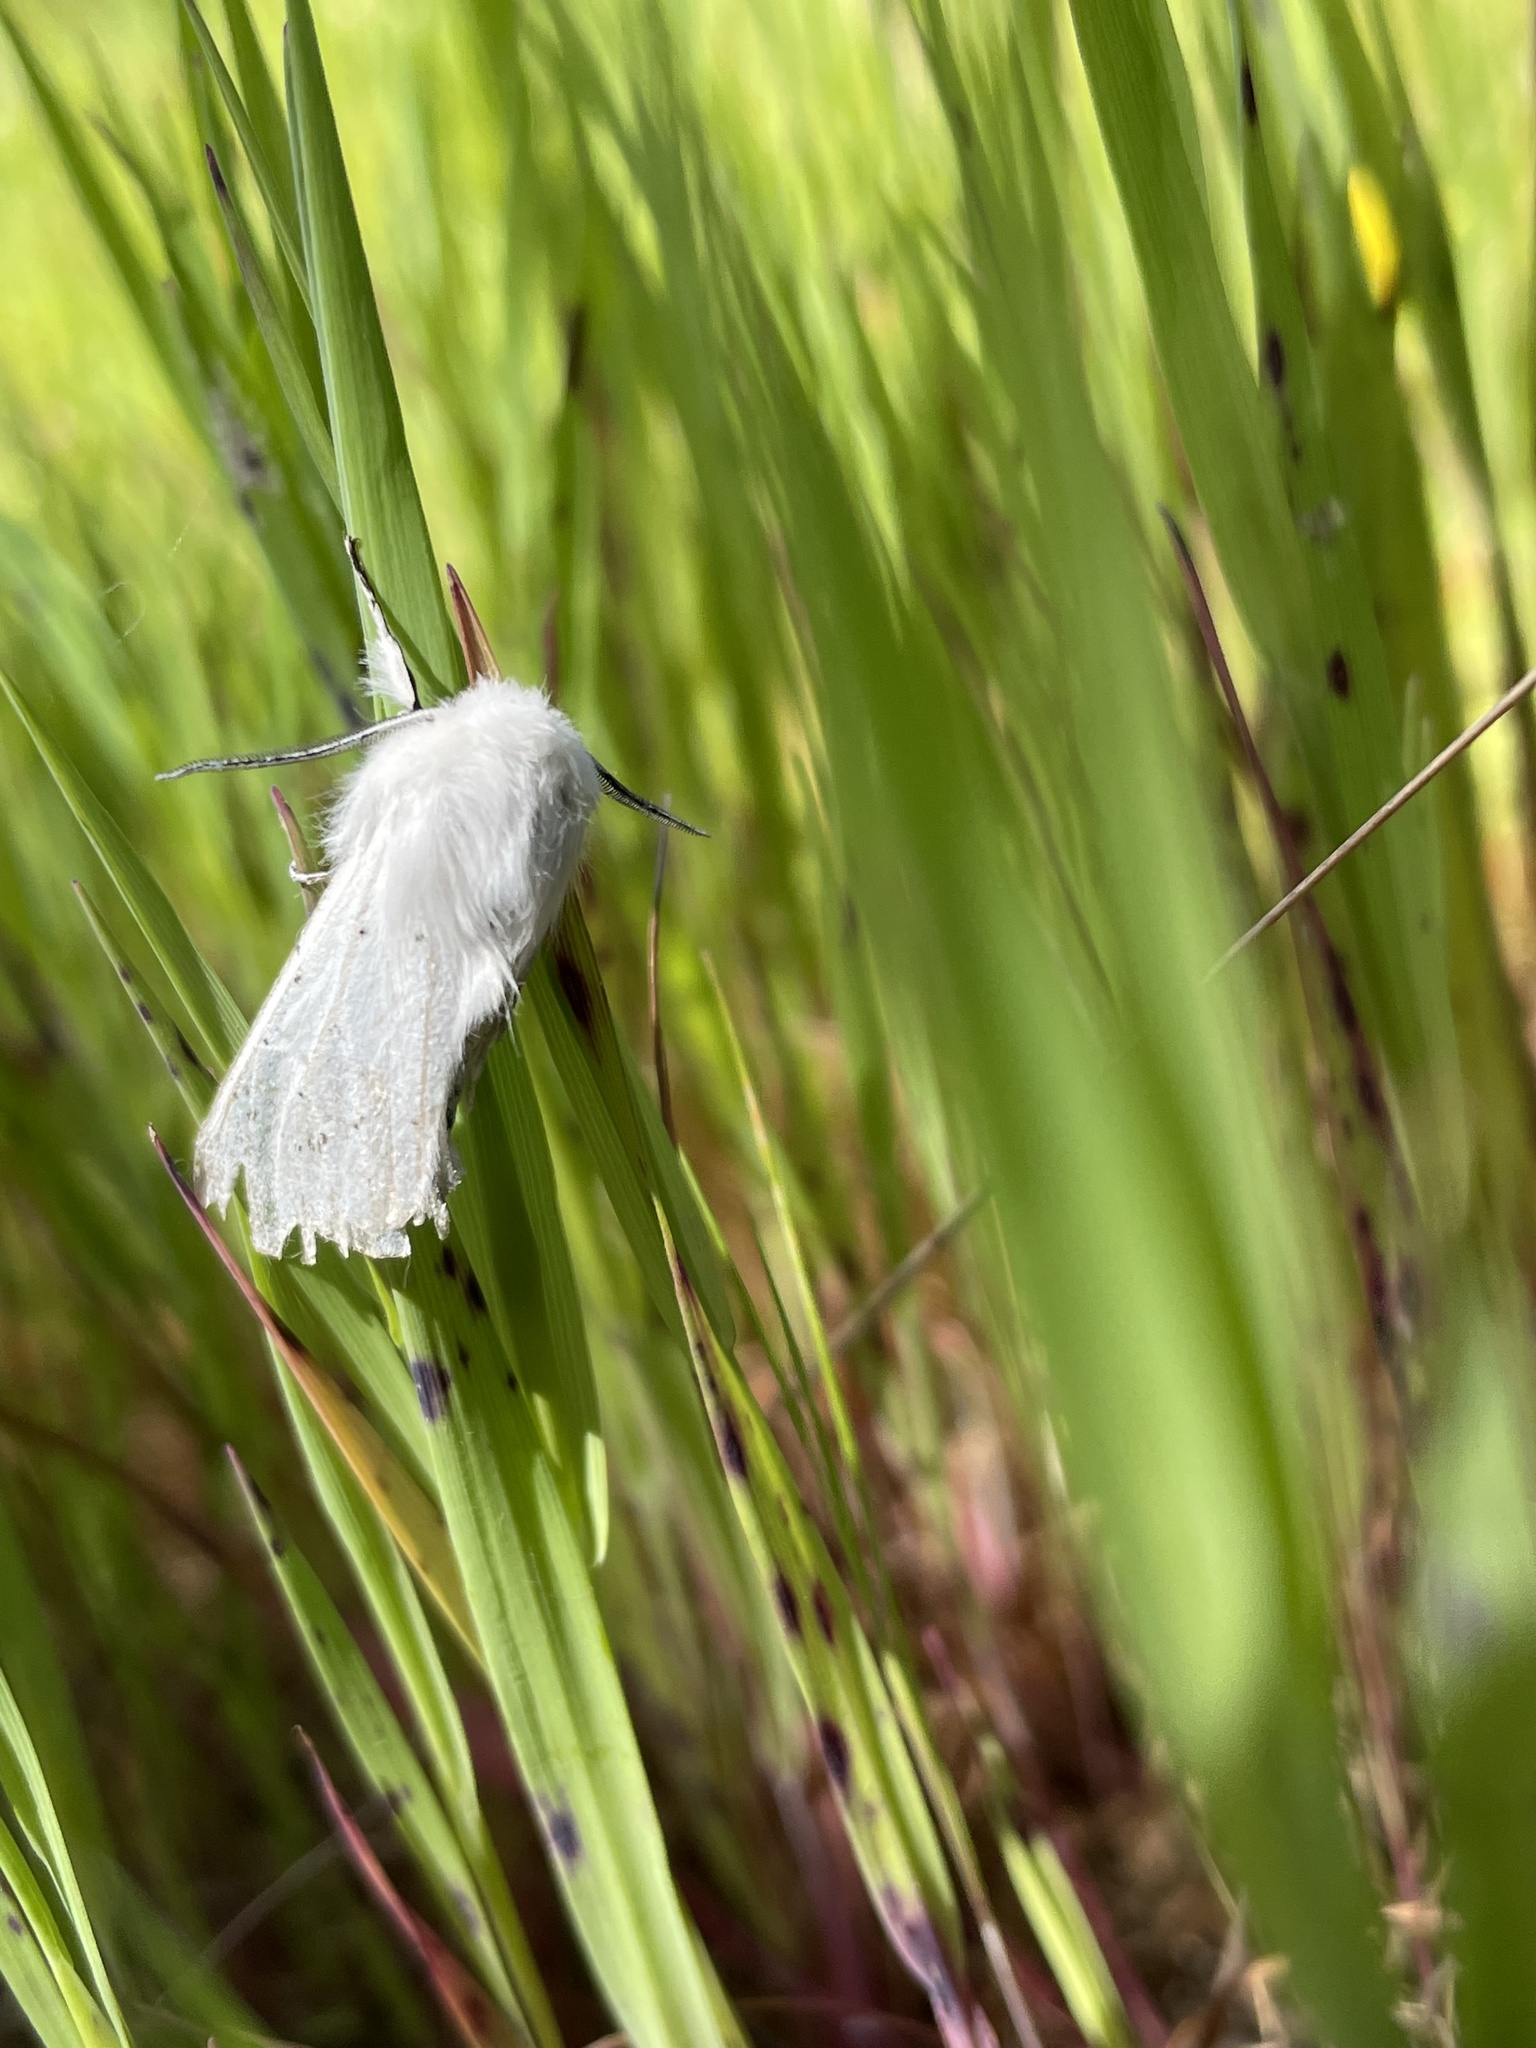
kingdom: Animalia
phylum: Arthropoda
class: Insecta
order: Lepidoptera
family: Erebidae
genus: Spilosoma
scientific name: Spilosoma vestalis
